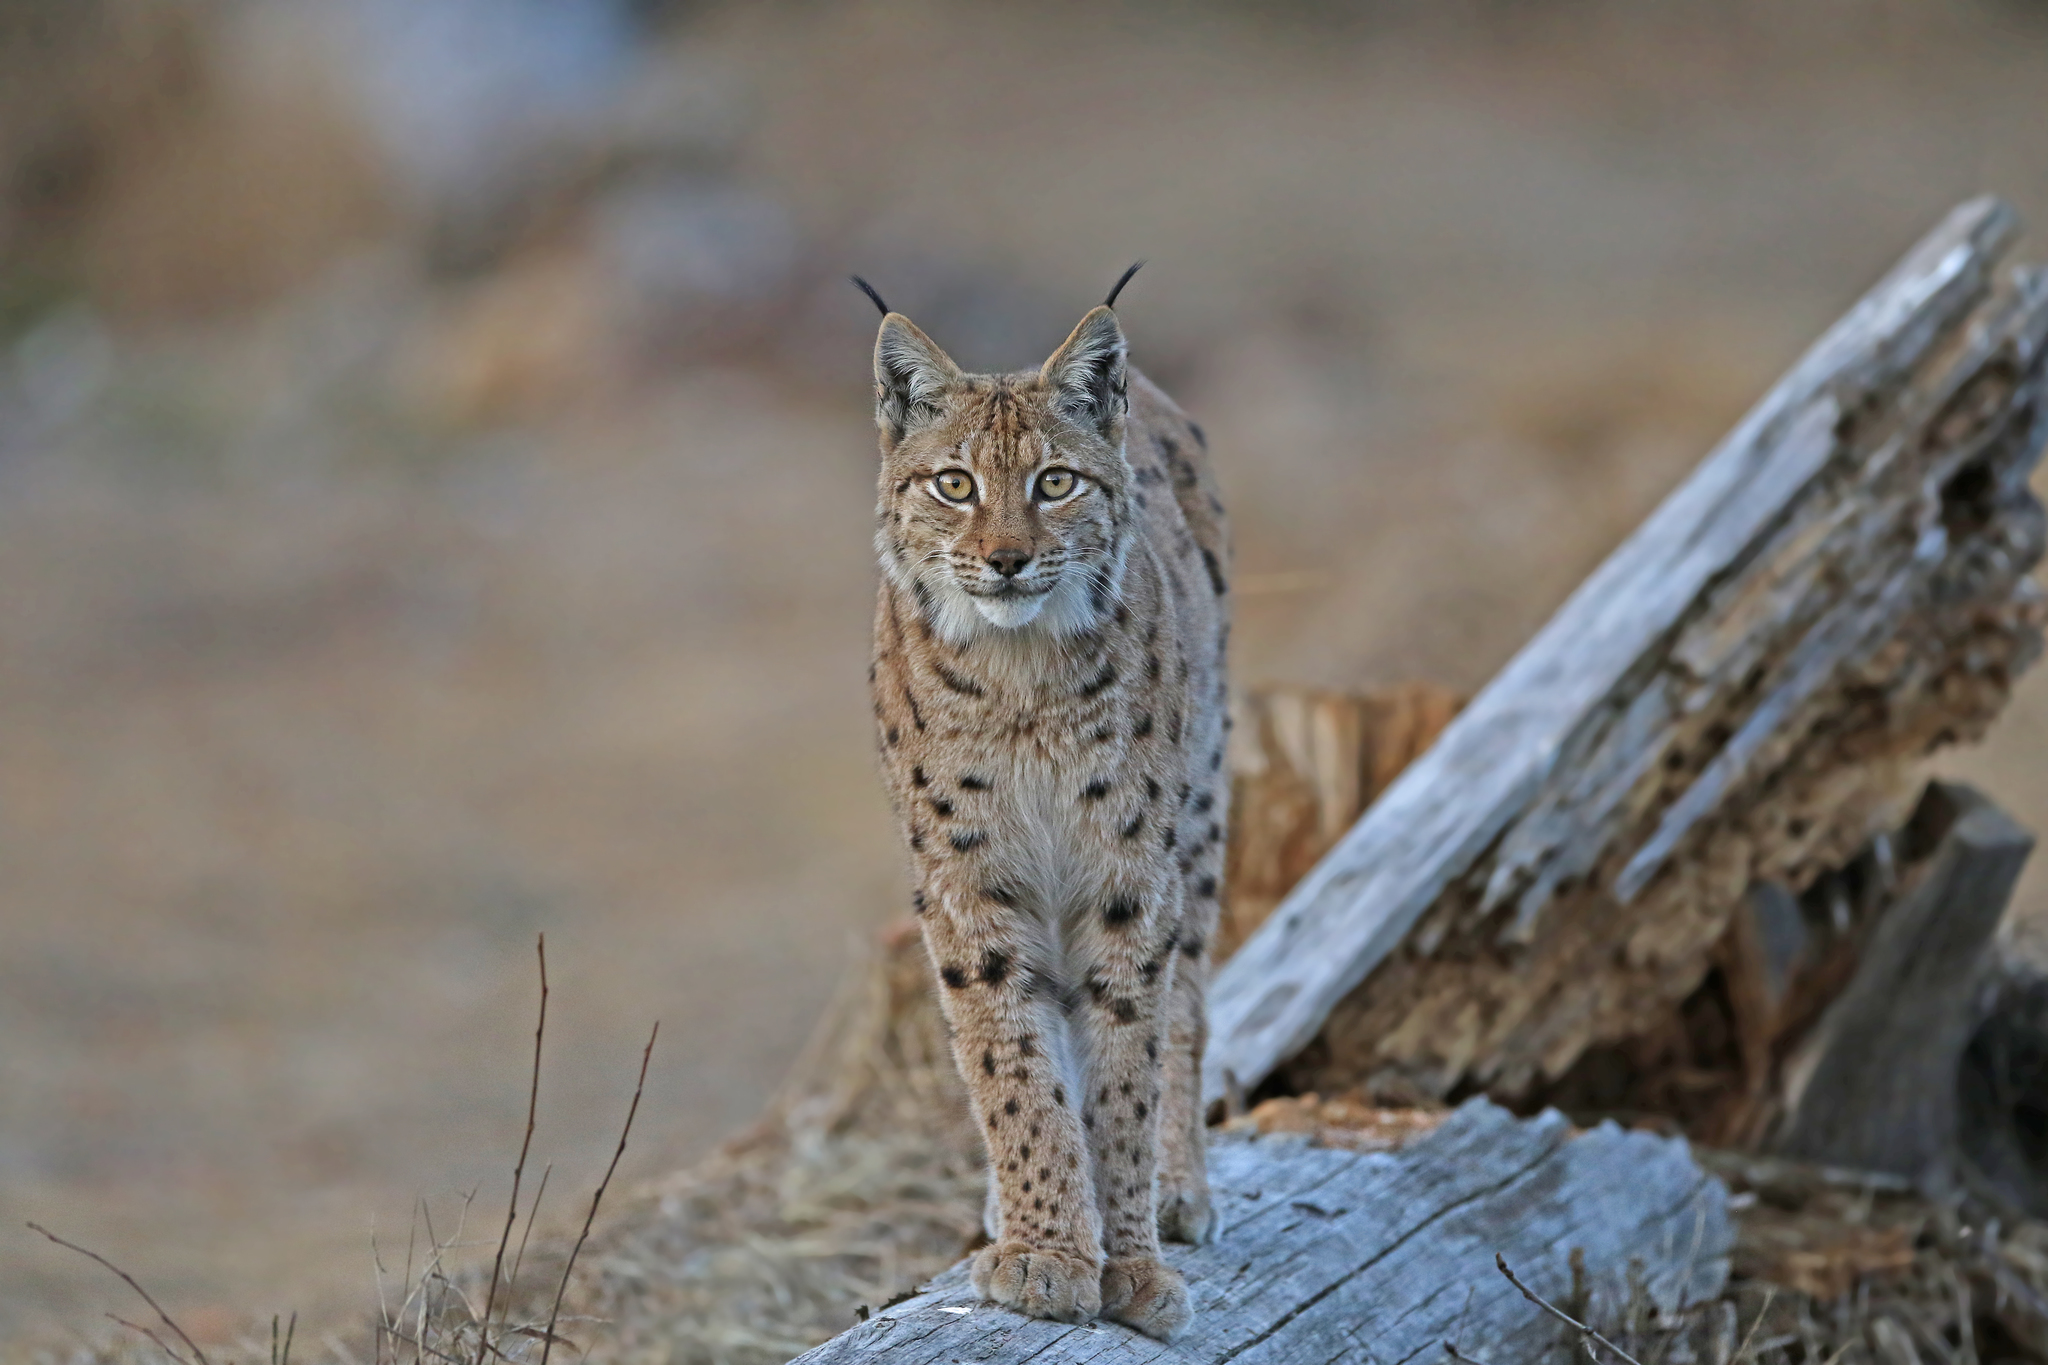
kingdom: Animalia
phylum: Chordata
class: Mammalia
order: Carnivora
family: Felidae
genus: Lynx
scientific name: Lynx lynx
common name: Eurasian lynx
